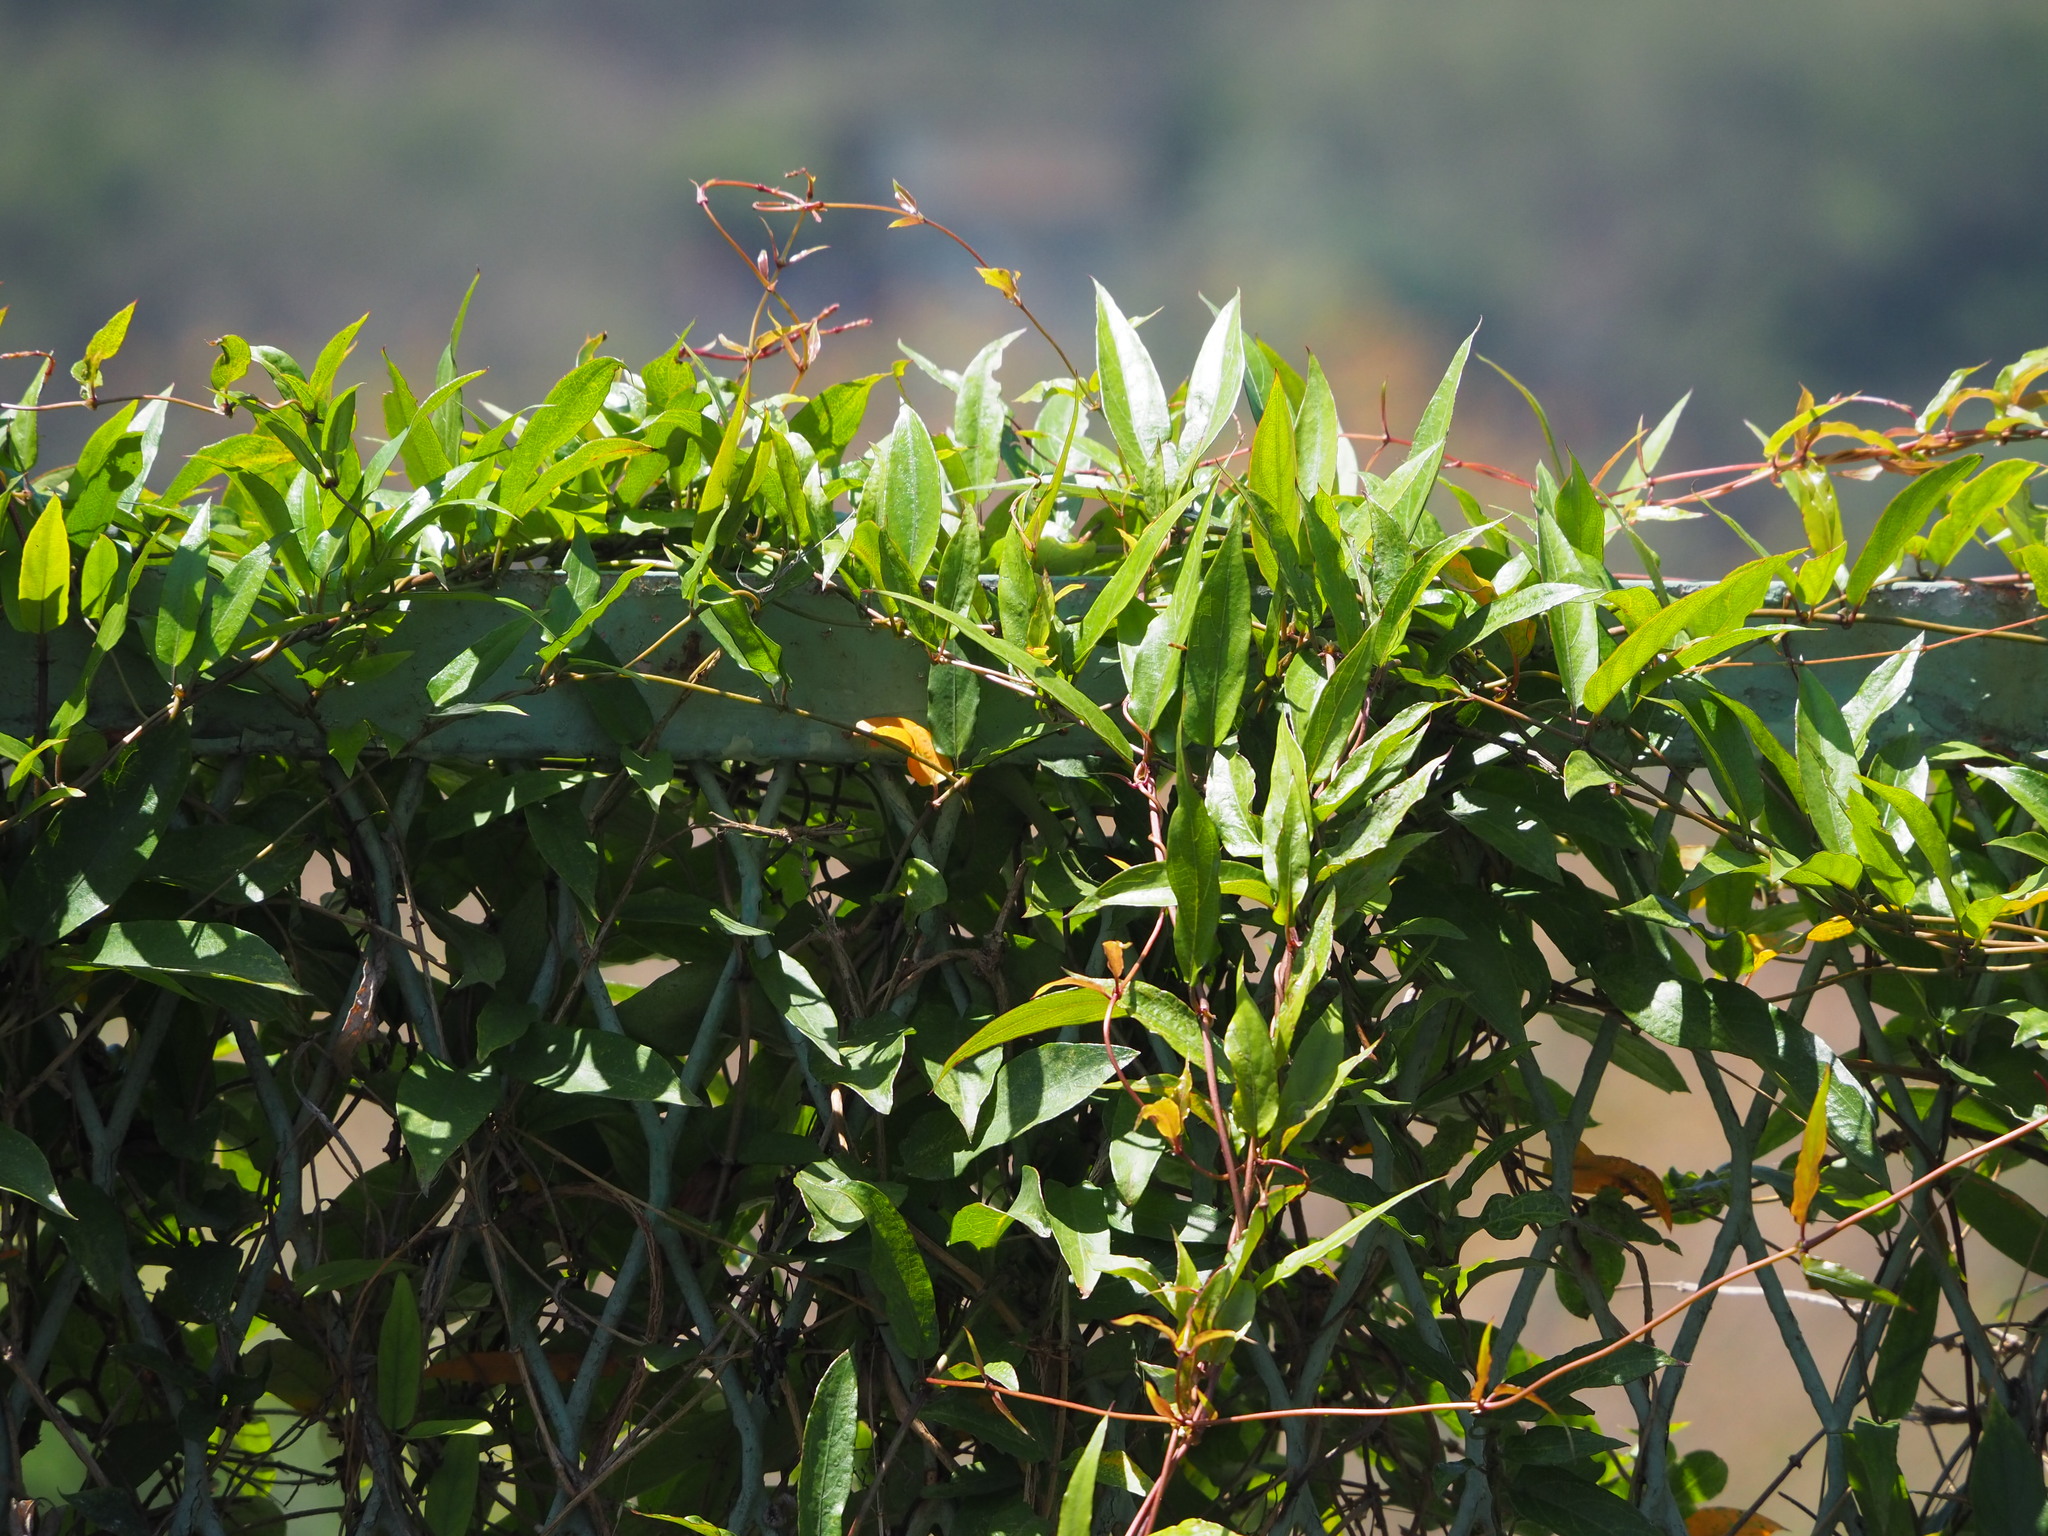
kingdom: Plantae
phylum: Tracheophyta
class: Magnoliopsida
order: Gentianales
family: Rubiaceae
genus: Paederia
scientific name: Paederia foetida
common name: Stinkvine
